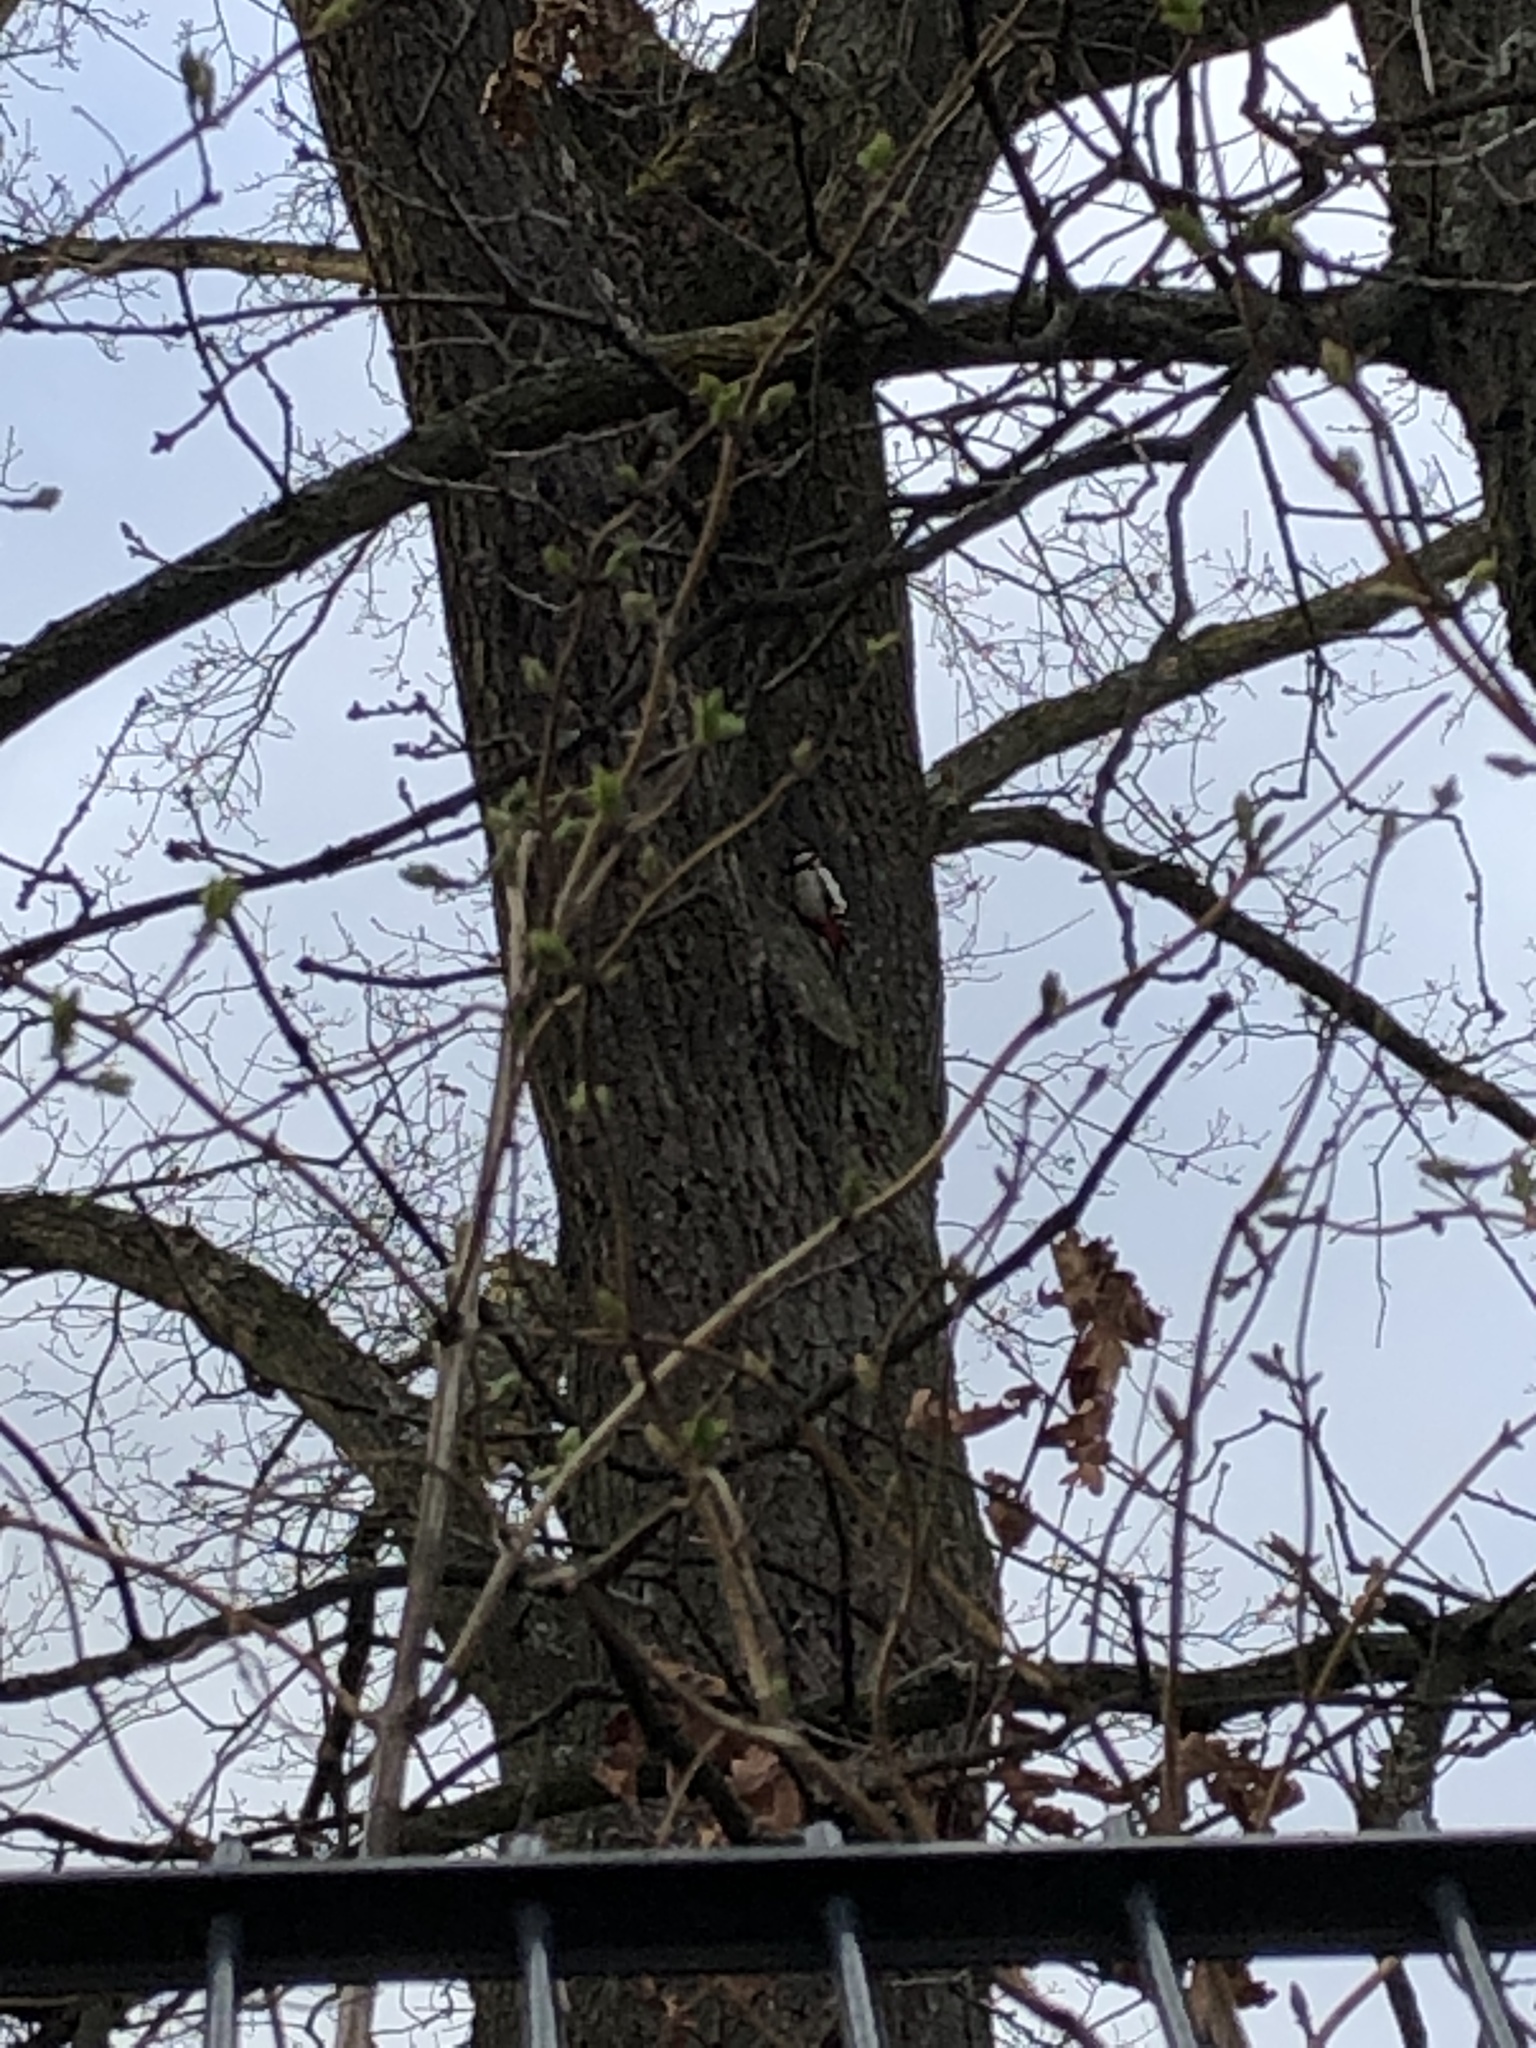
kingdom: Animalia
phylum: Chordata
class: Aves
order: Piciformes
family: Picidae
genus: Dendrocopos
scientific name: Dendrocopos major
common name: Great spotted woodpecker
